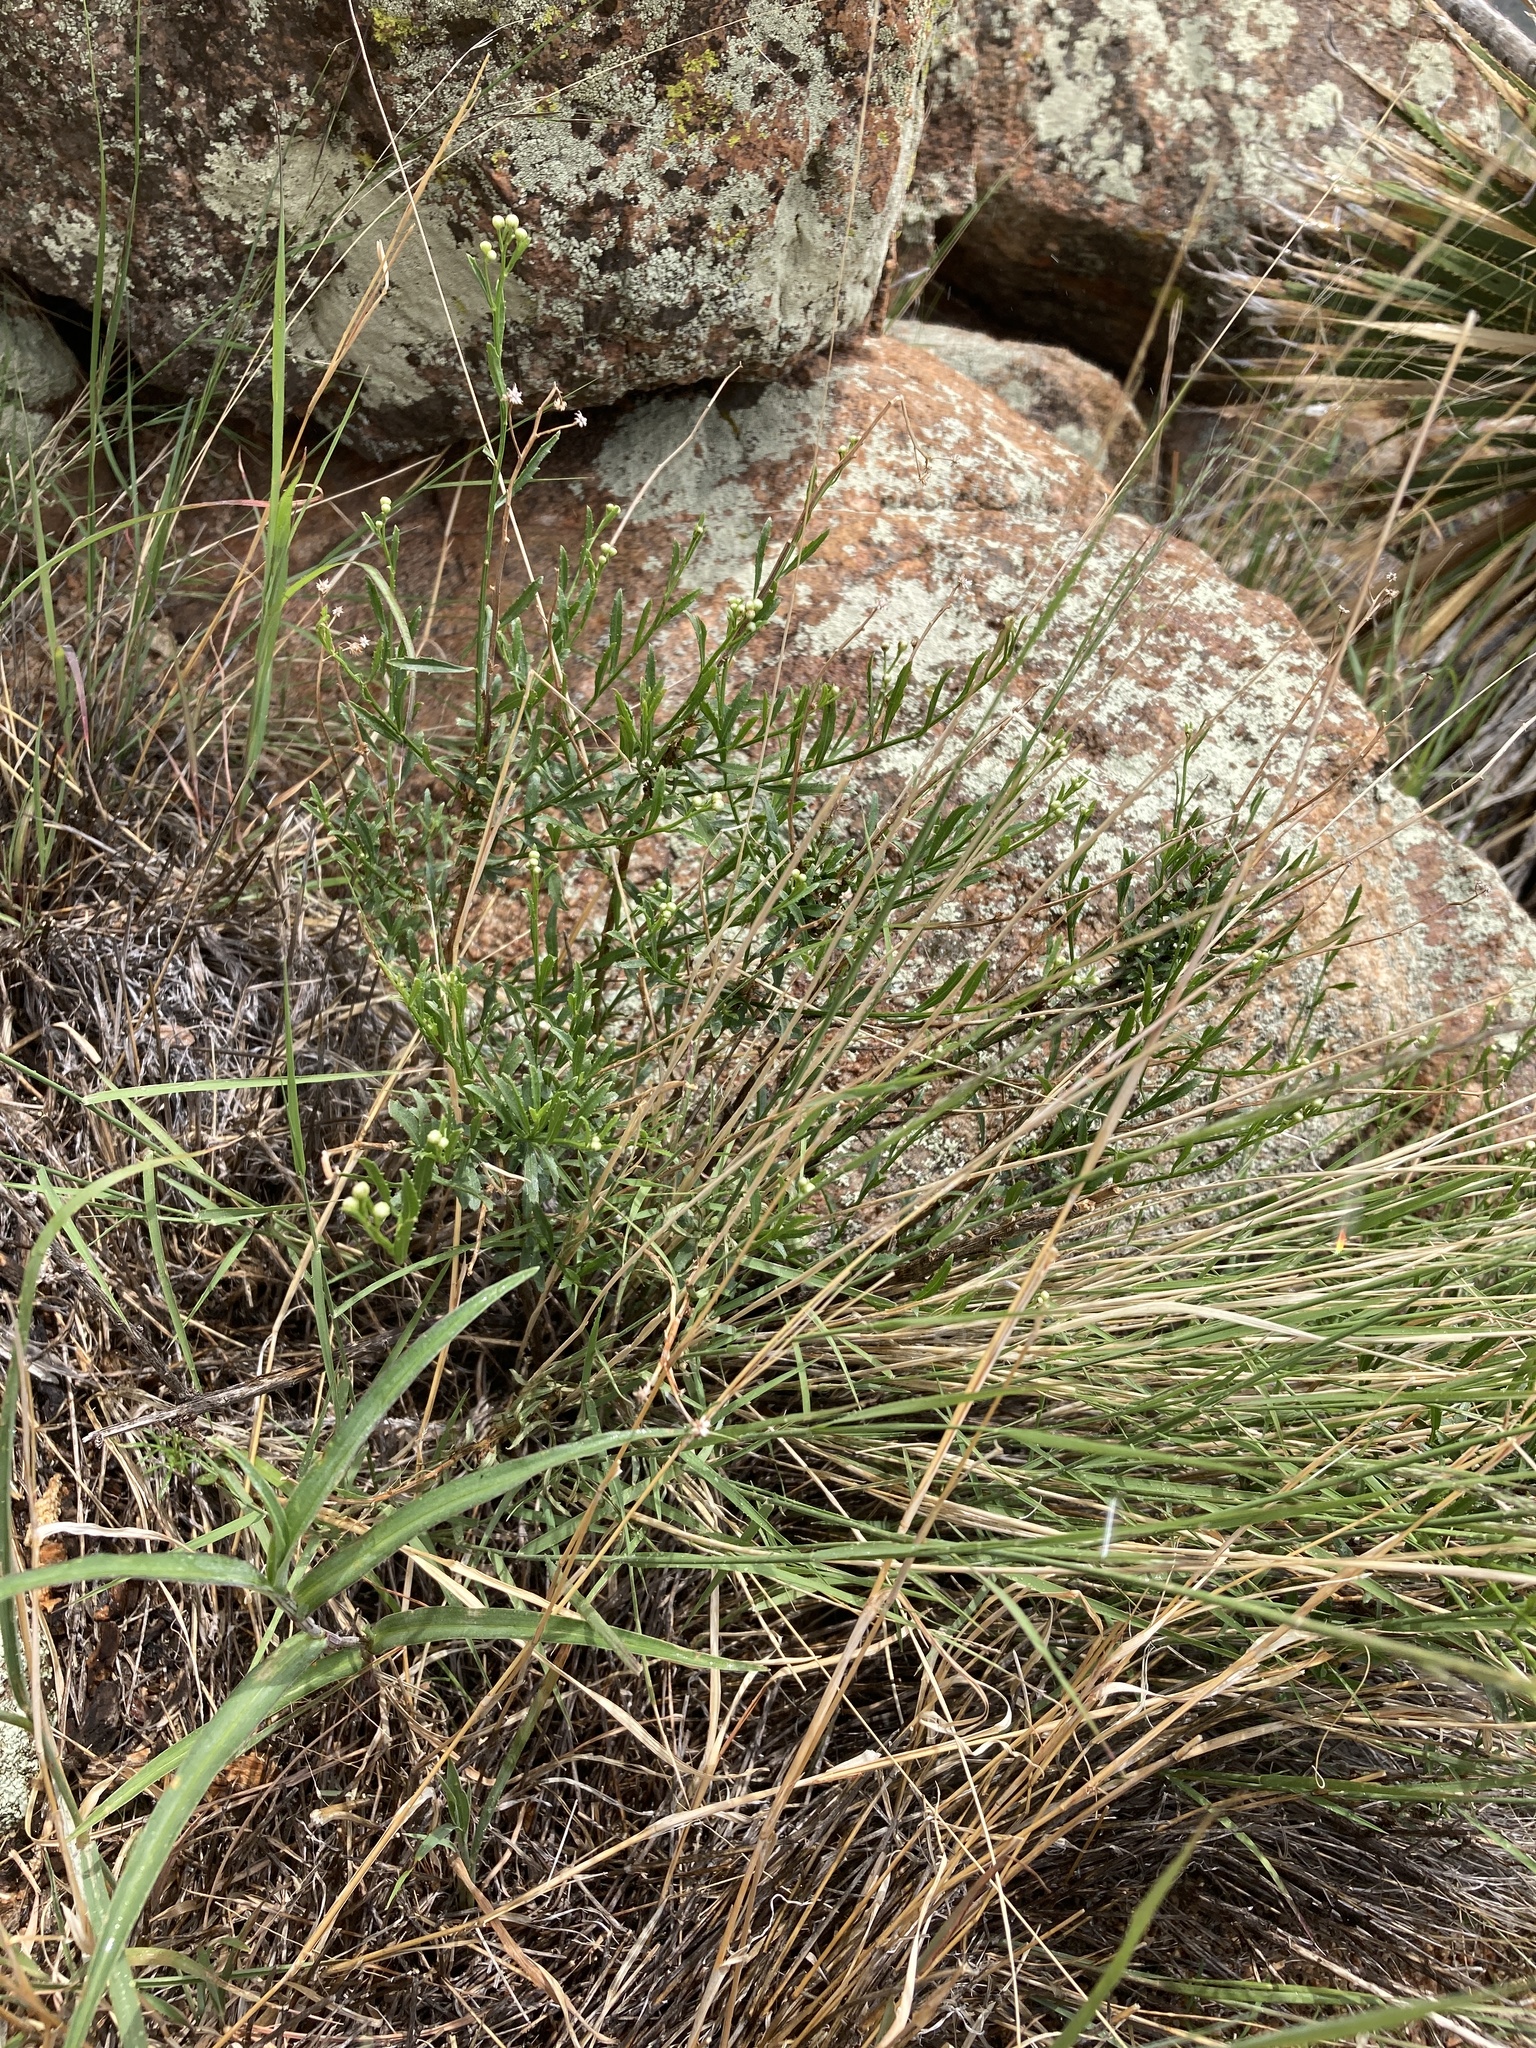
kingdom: Plantae
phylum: Tracheophyta
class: Magnoliopsida
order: Asterales
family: Asteraceae
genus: Baccharis
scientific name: Baccharis thesioides
